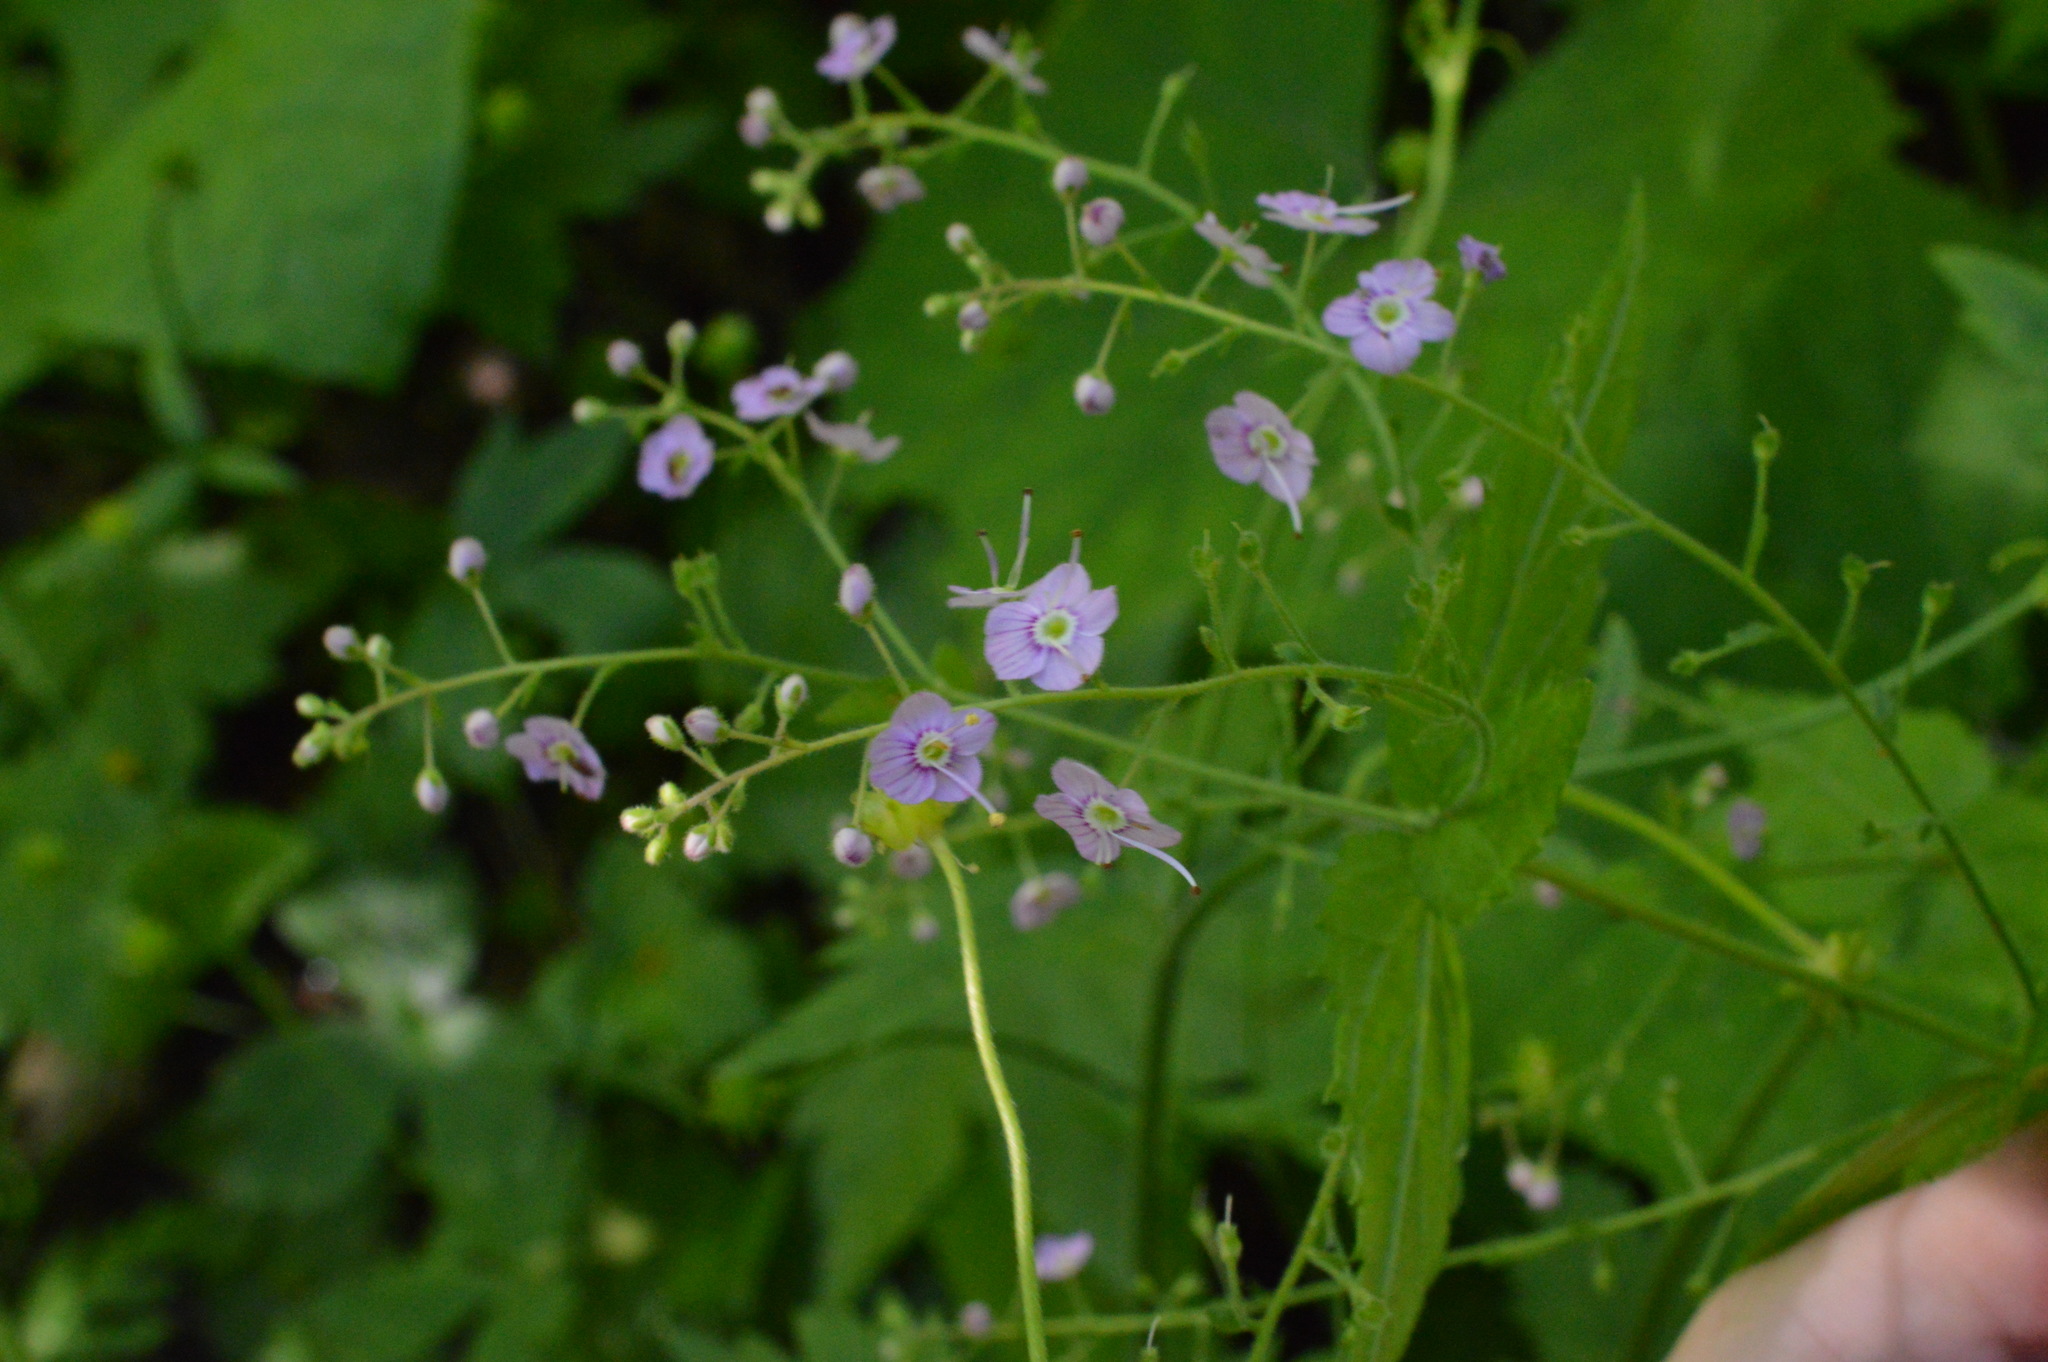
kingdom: Plantae
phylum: Tracheophyta
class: Magnoliopsida
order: Lamiales
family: Plantaginaceae
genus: Veronica
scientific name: Veronica urticifolia
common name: Nettle-leaf speedwell
